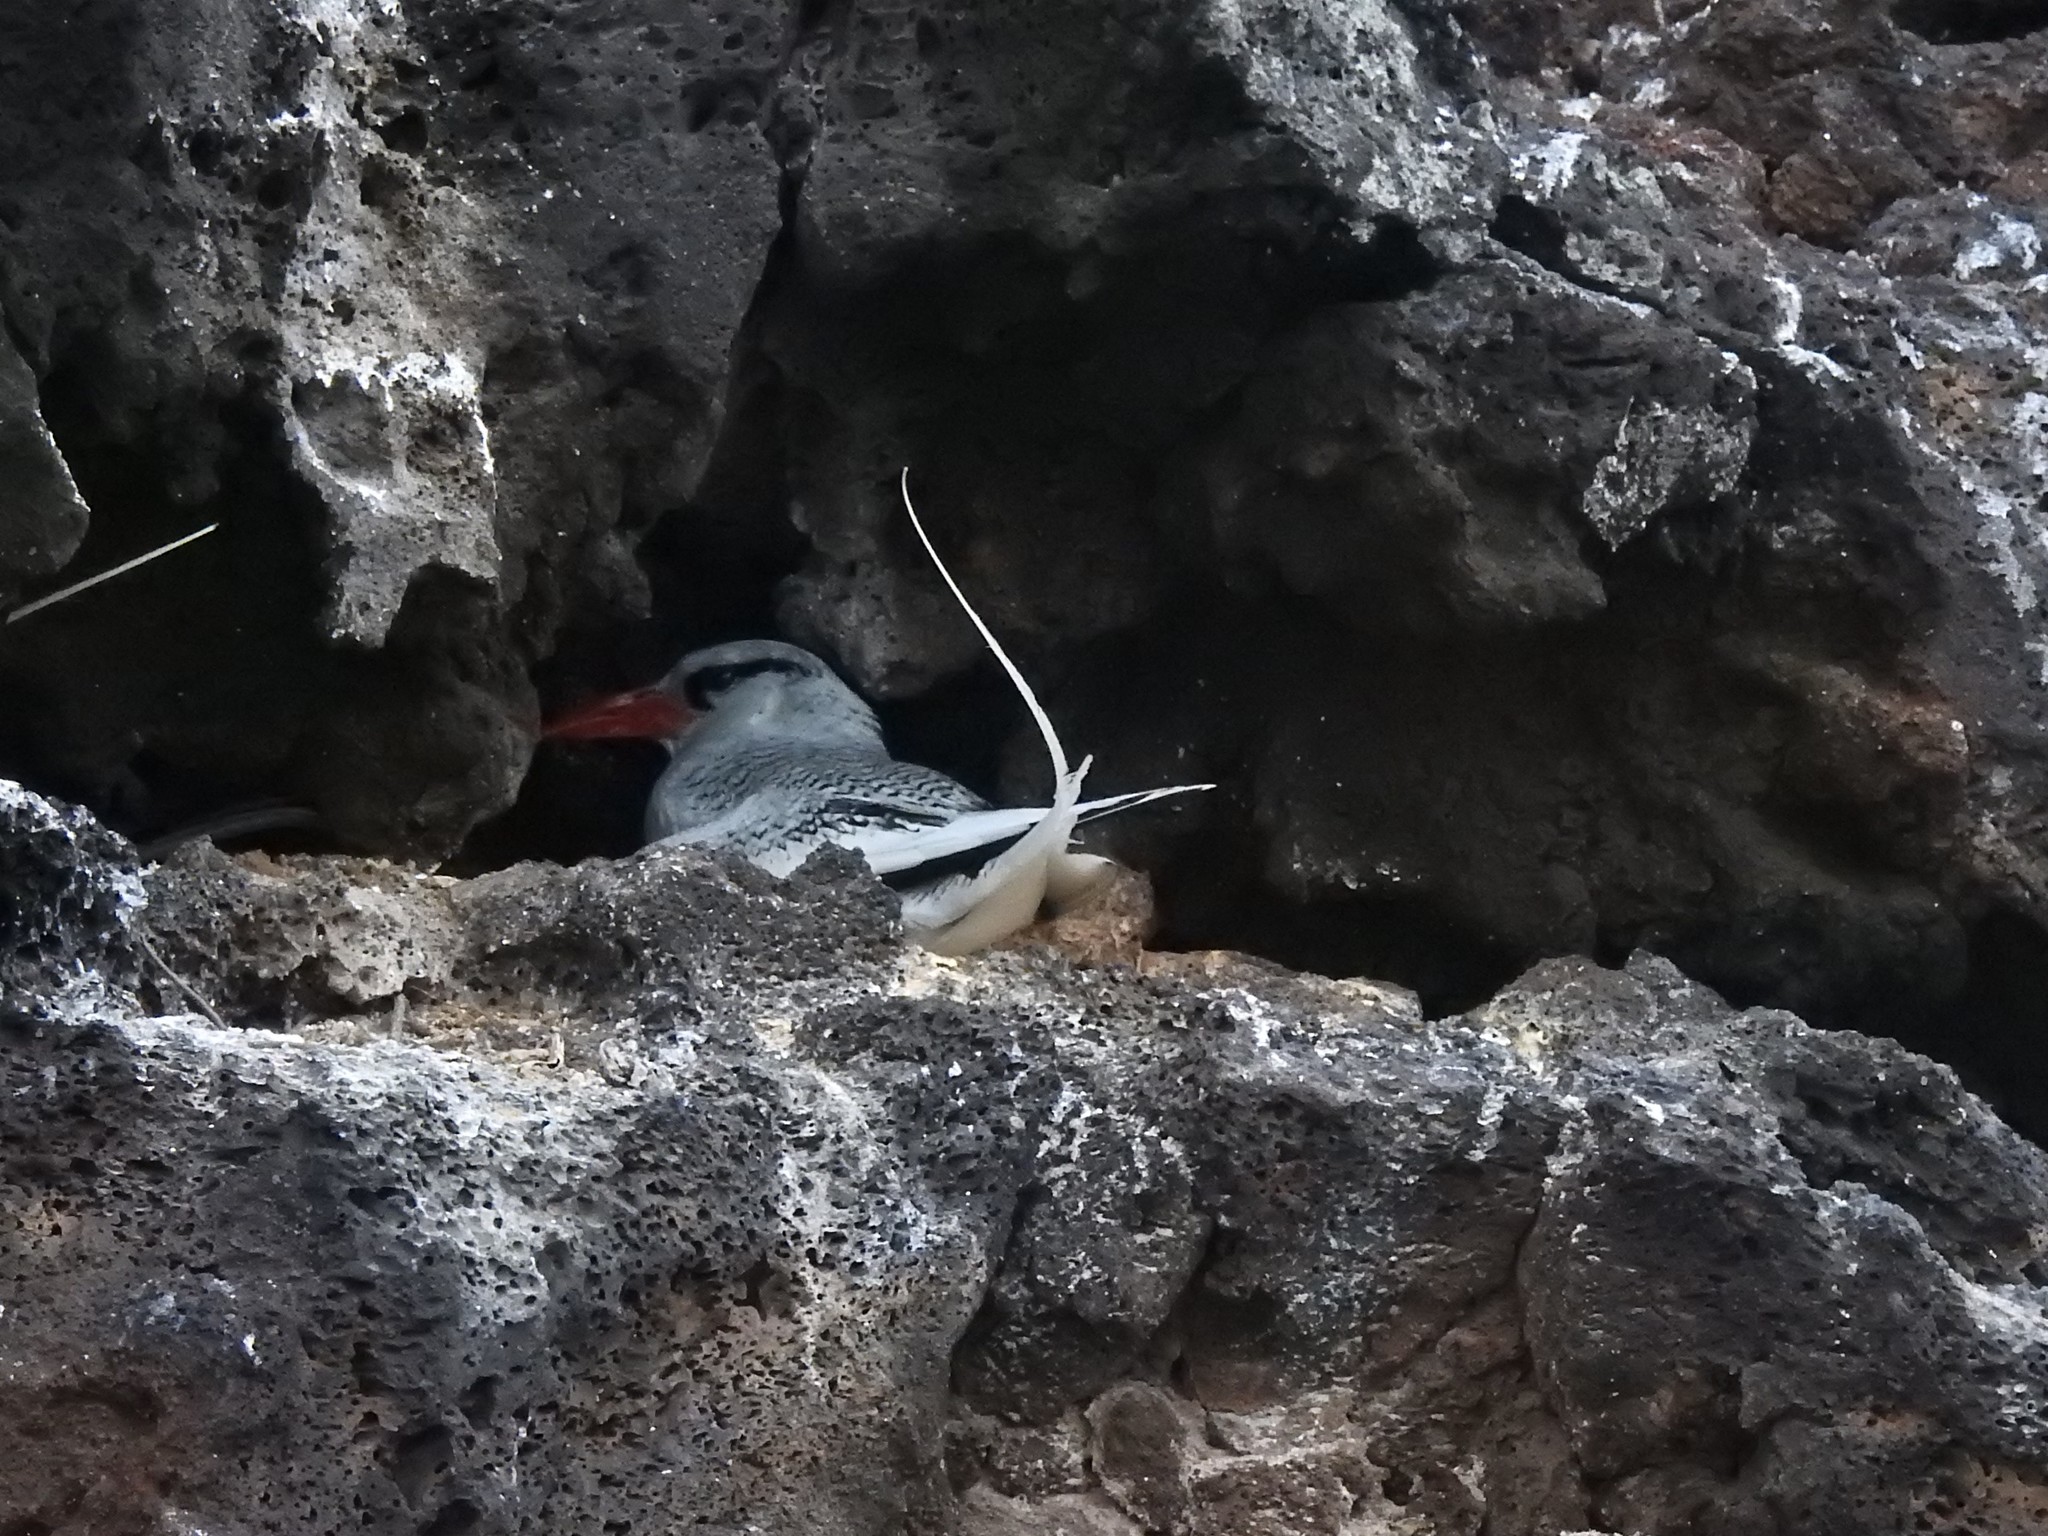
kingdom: Animalia
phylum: Chordata
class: Aves
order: Phaethontiformes
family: Phaethontidae
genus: Phaethon
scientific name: Phaethon aethereus
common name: Red-billed tropicbird
